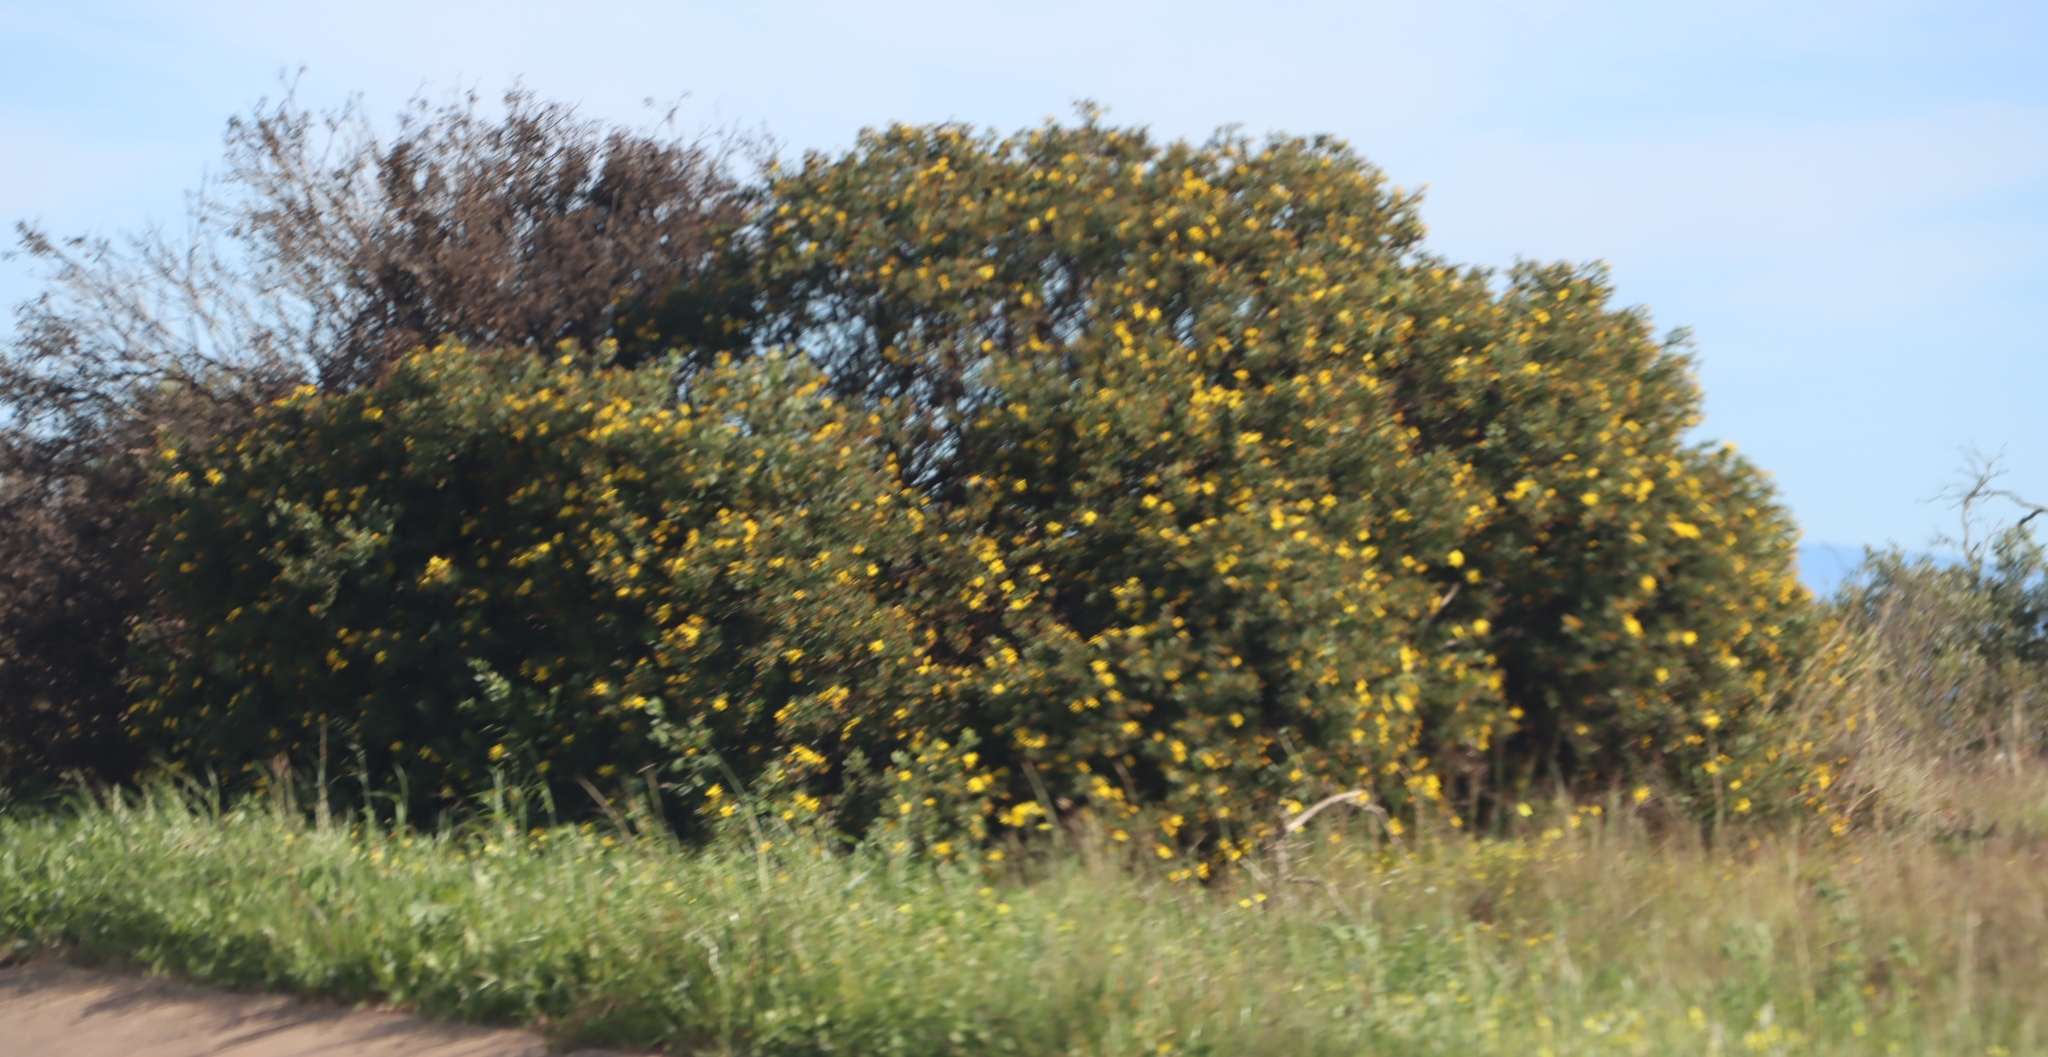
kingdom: Plantae
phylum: Tracheophyta
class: Magnoliopsida
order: Asterales
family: Asteraceae
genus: Osteospermum
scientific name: Osteospermum moniliferum
